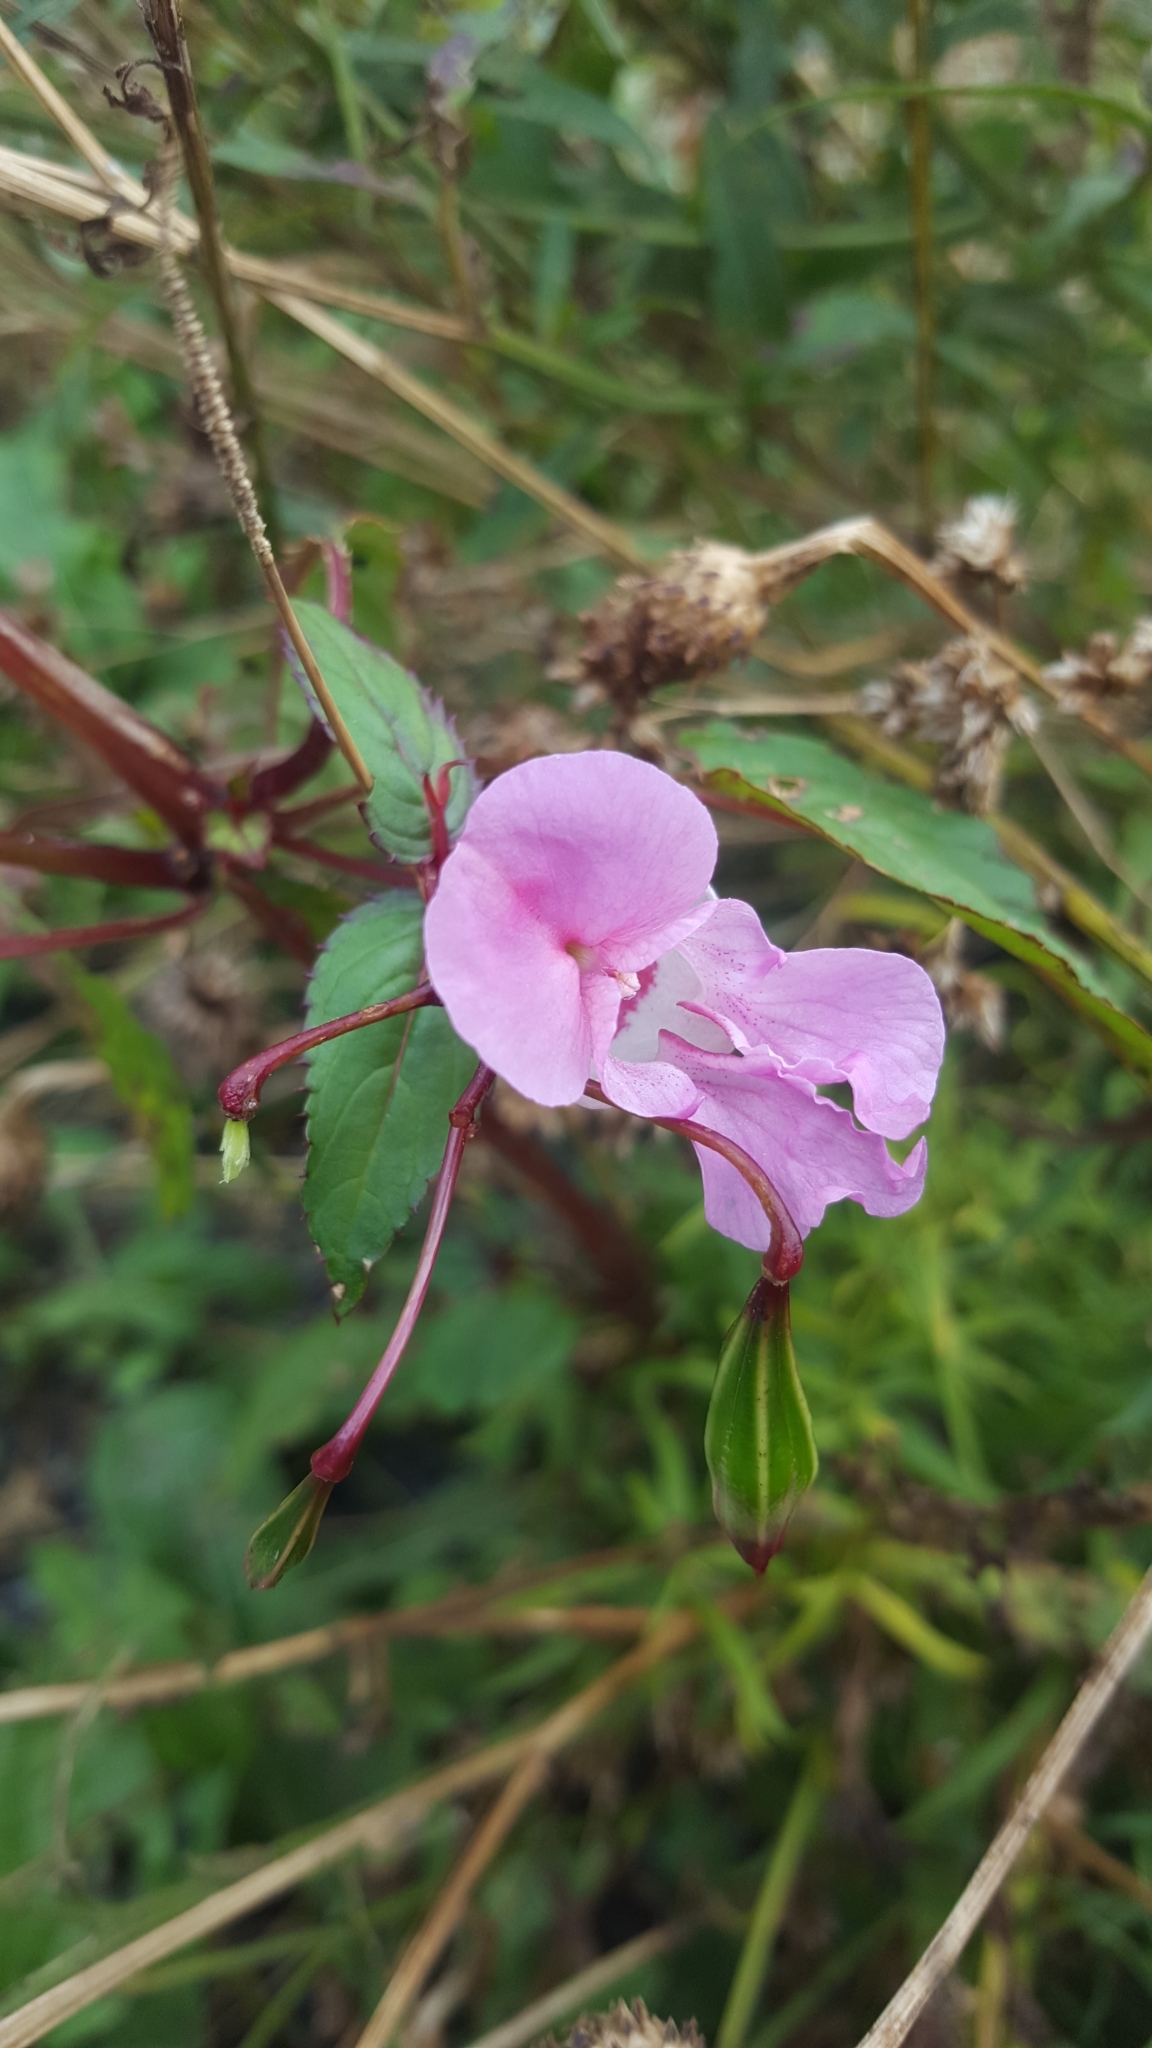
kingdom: Plantae
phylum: Tracheophyta
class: Magnoliopsida
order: Ericales
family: Balsaminaceae
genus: Impatiens
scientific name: Impatiens glandulifera
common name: Himalayan balsam
